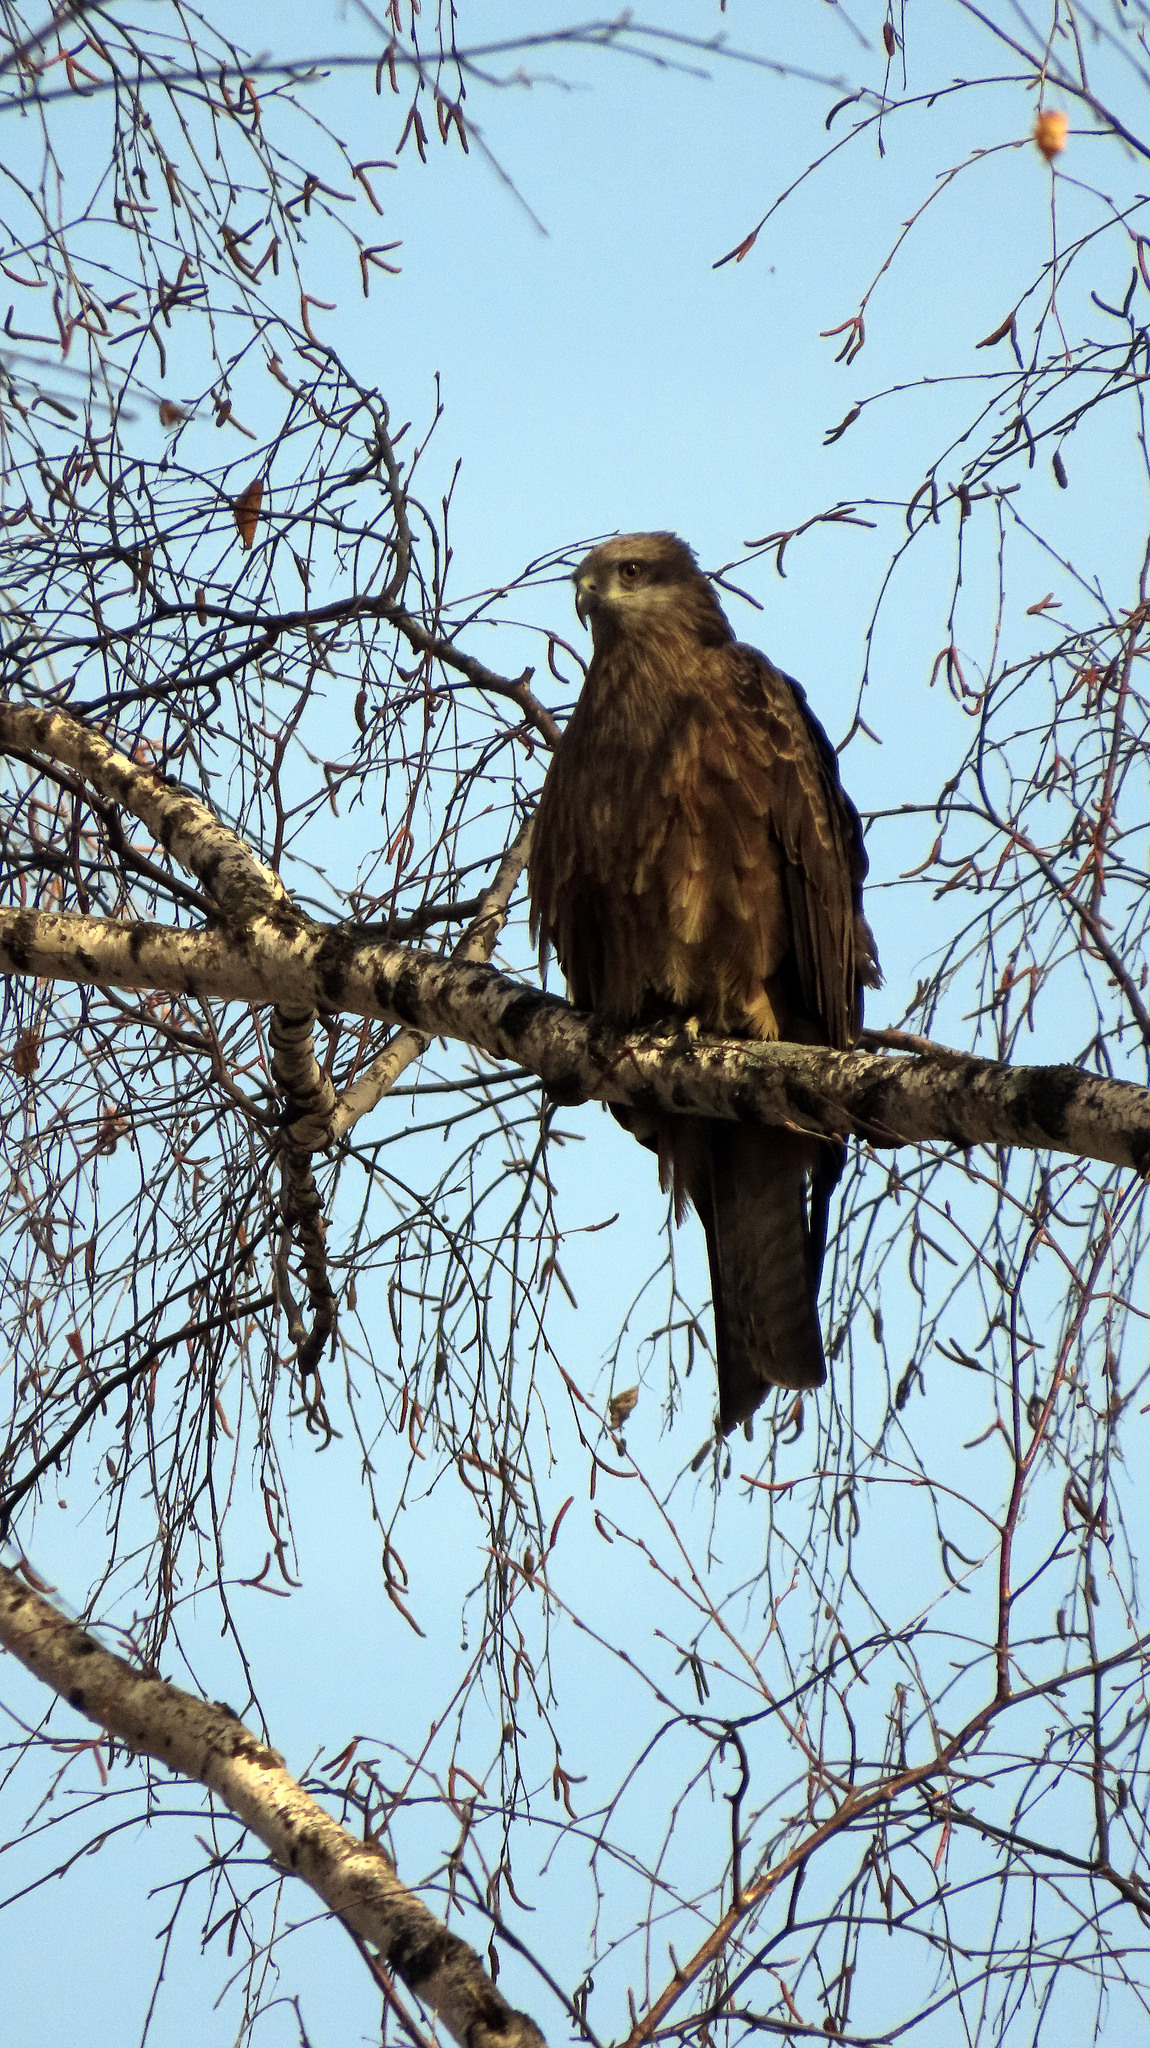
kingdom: Animalia
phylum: Chordata
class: Aves
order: Accipitriformes
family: Accipitridae
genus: Milvus
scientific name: Milvus migrans
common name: Black kite
